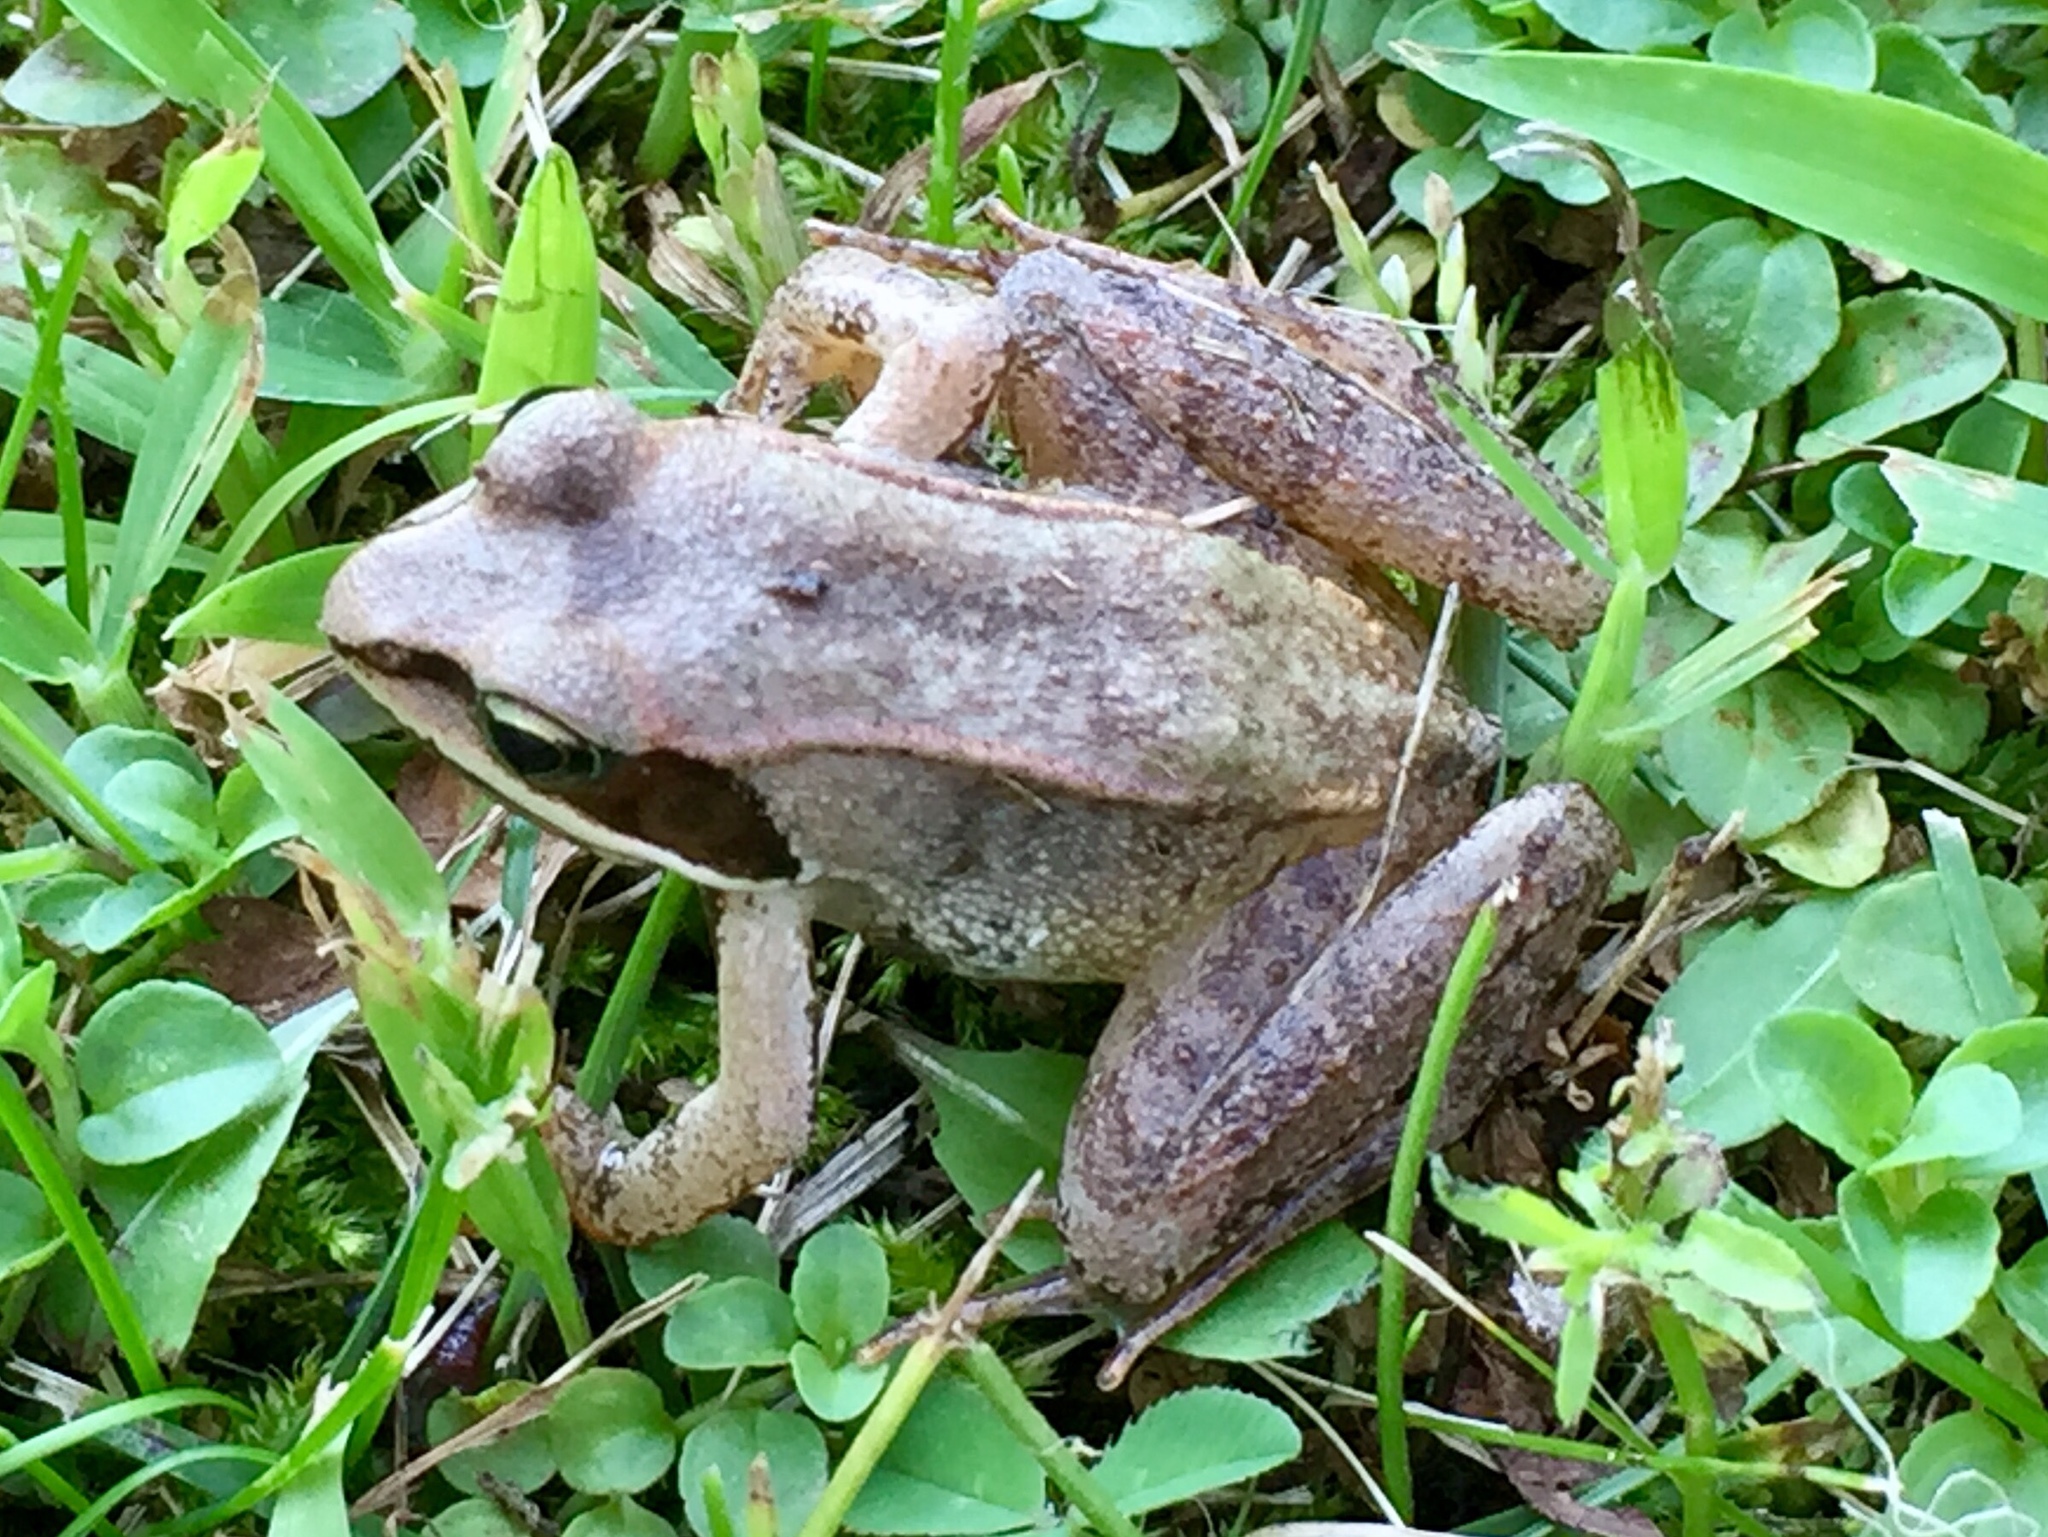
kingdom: Animalia
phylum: Chordata
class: Amphibia
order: Anura
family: Ranidae
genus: Lithobates
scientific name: Lithobates sylvaticus
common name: Wood frog
